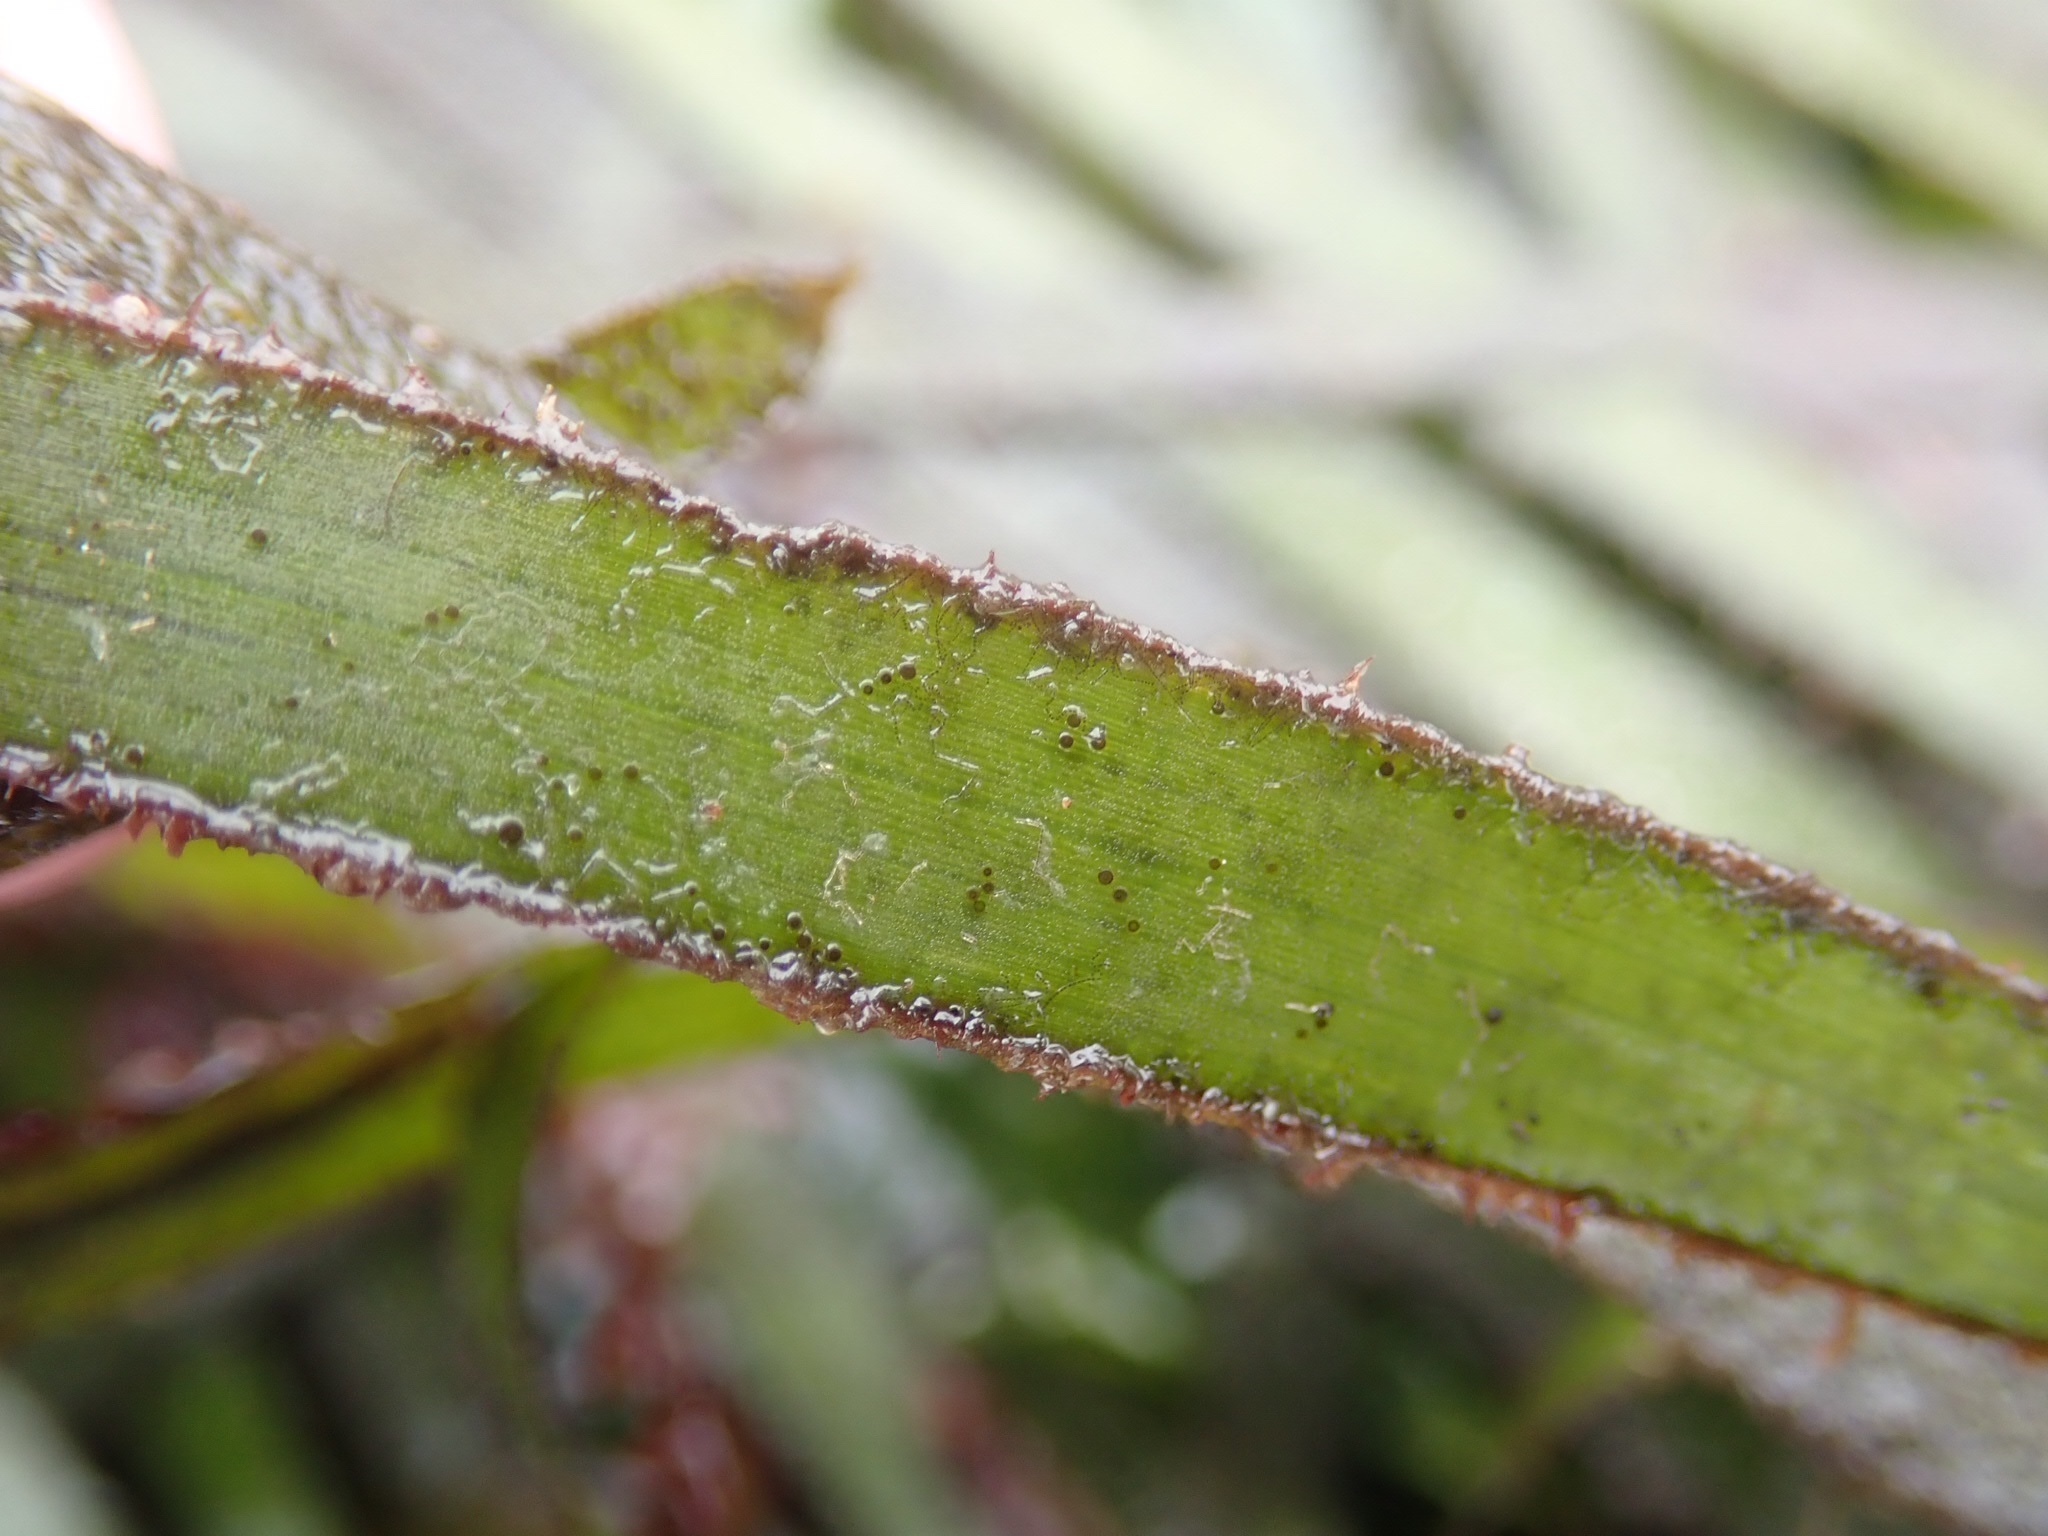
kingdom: Plantae
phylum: Tracheophyta
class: Liliopsida
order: Alismatales
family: Zosteraceae
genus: Zostera
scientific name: Zostera marina
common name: Eelgrass
